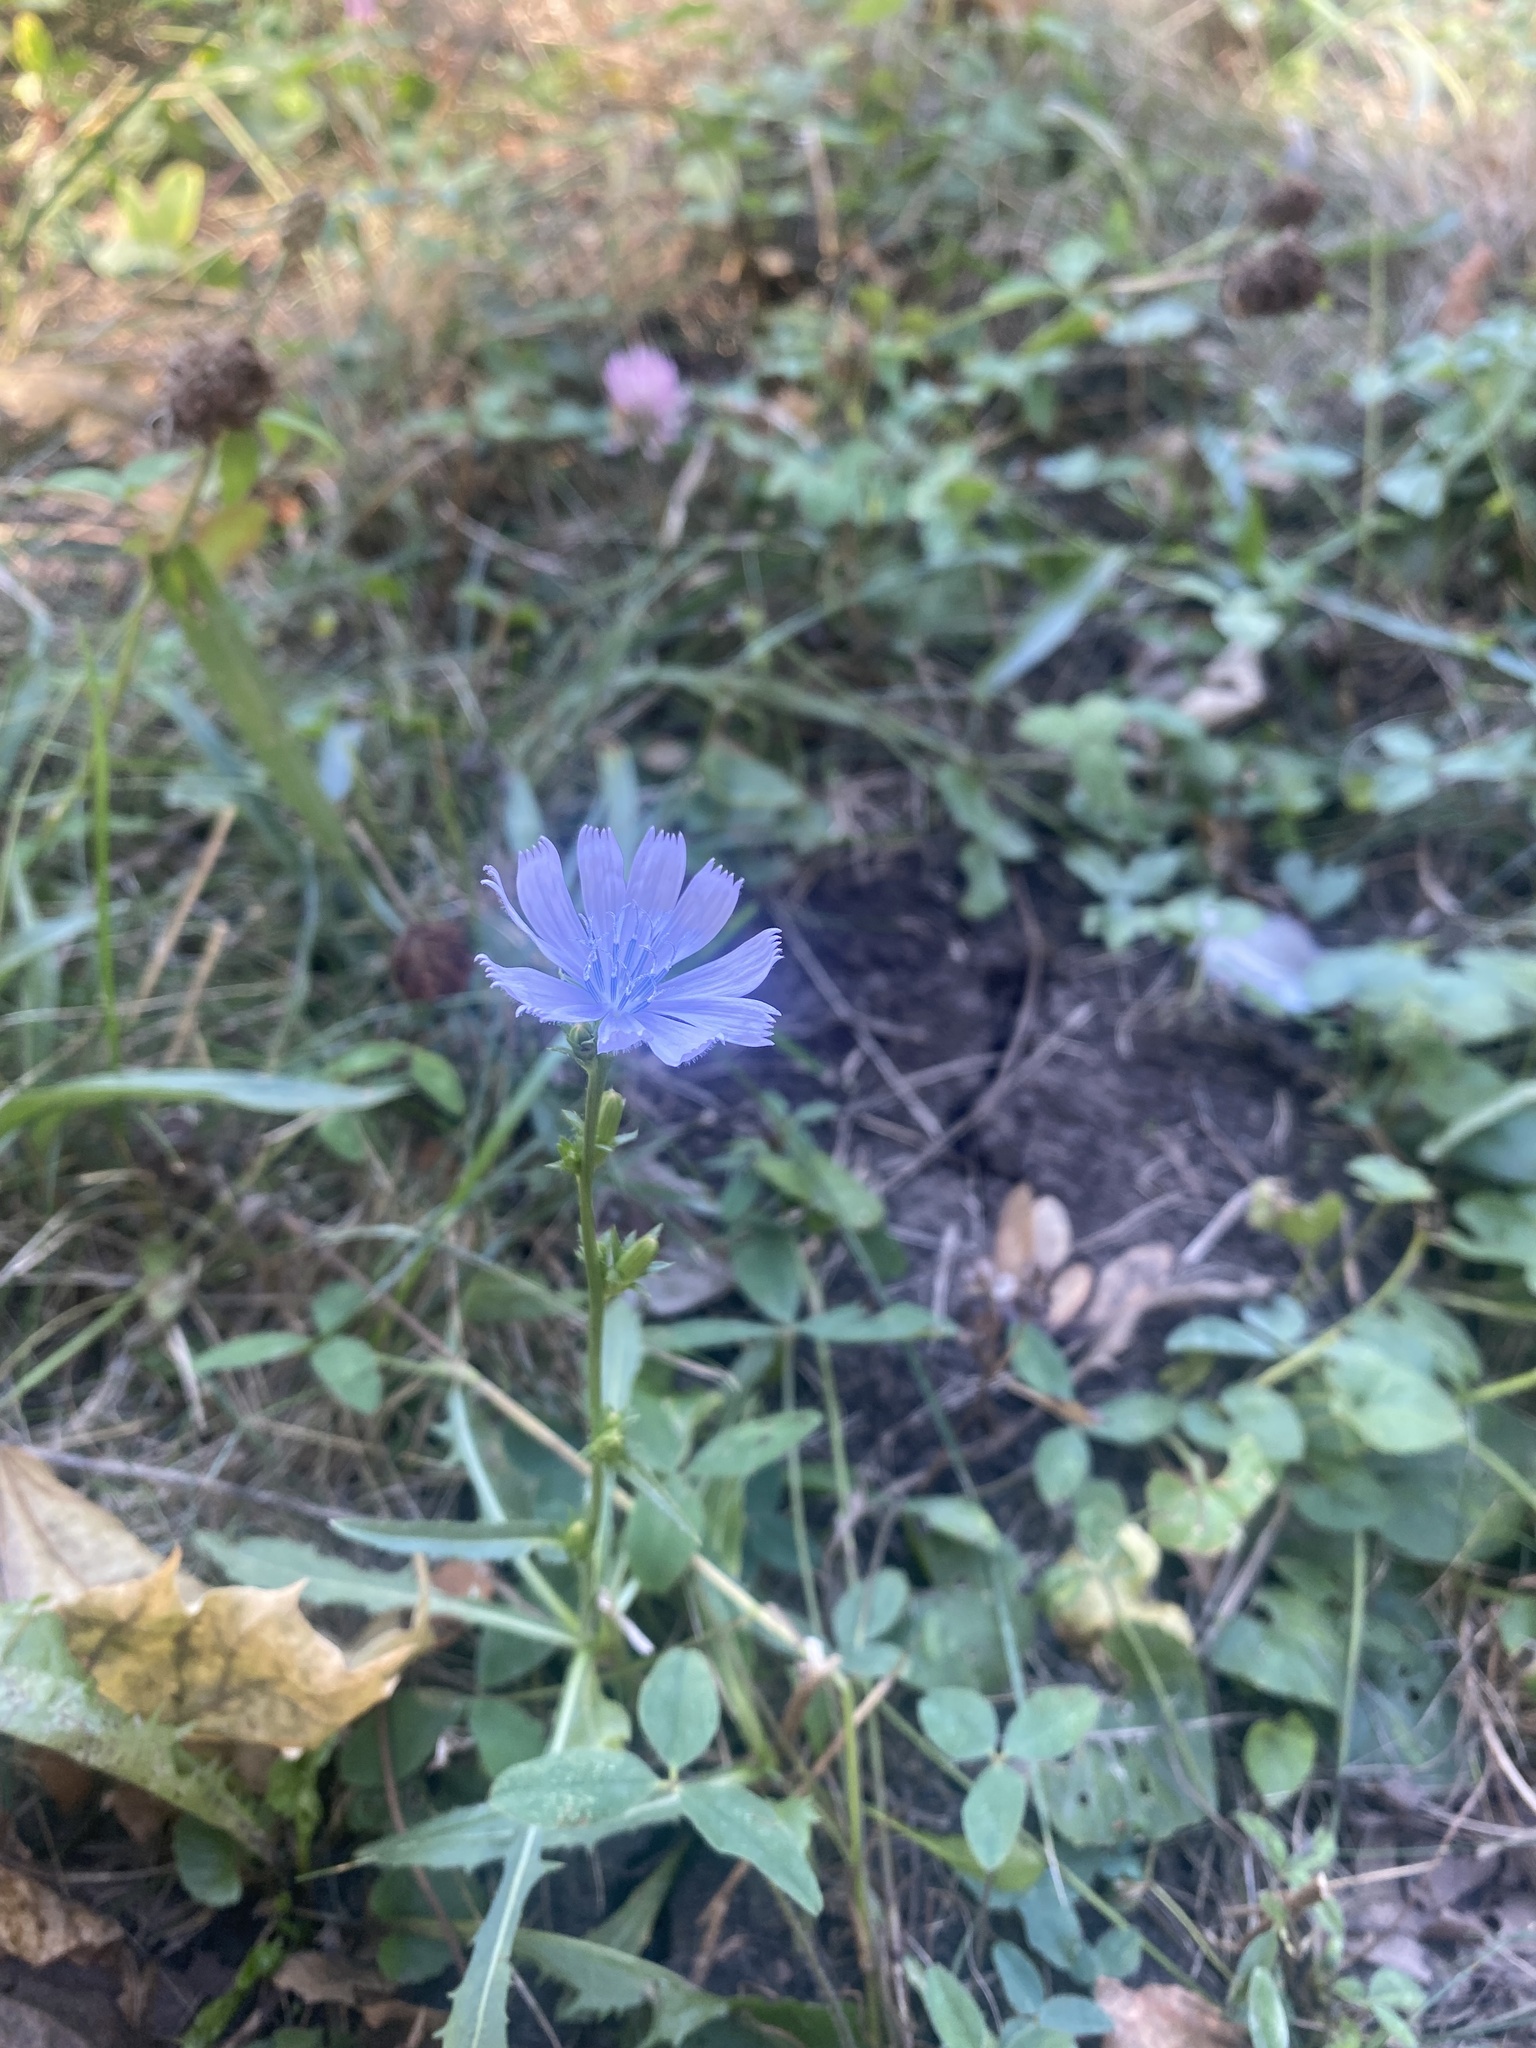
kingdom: Plantae
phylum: Tracheophyta
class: Magnoliopsida
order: Asterales
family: Asteraceae
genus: Cichorium
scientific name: Cichorium intybus
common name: Chicory
